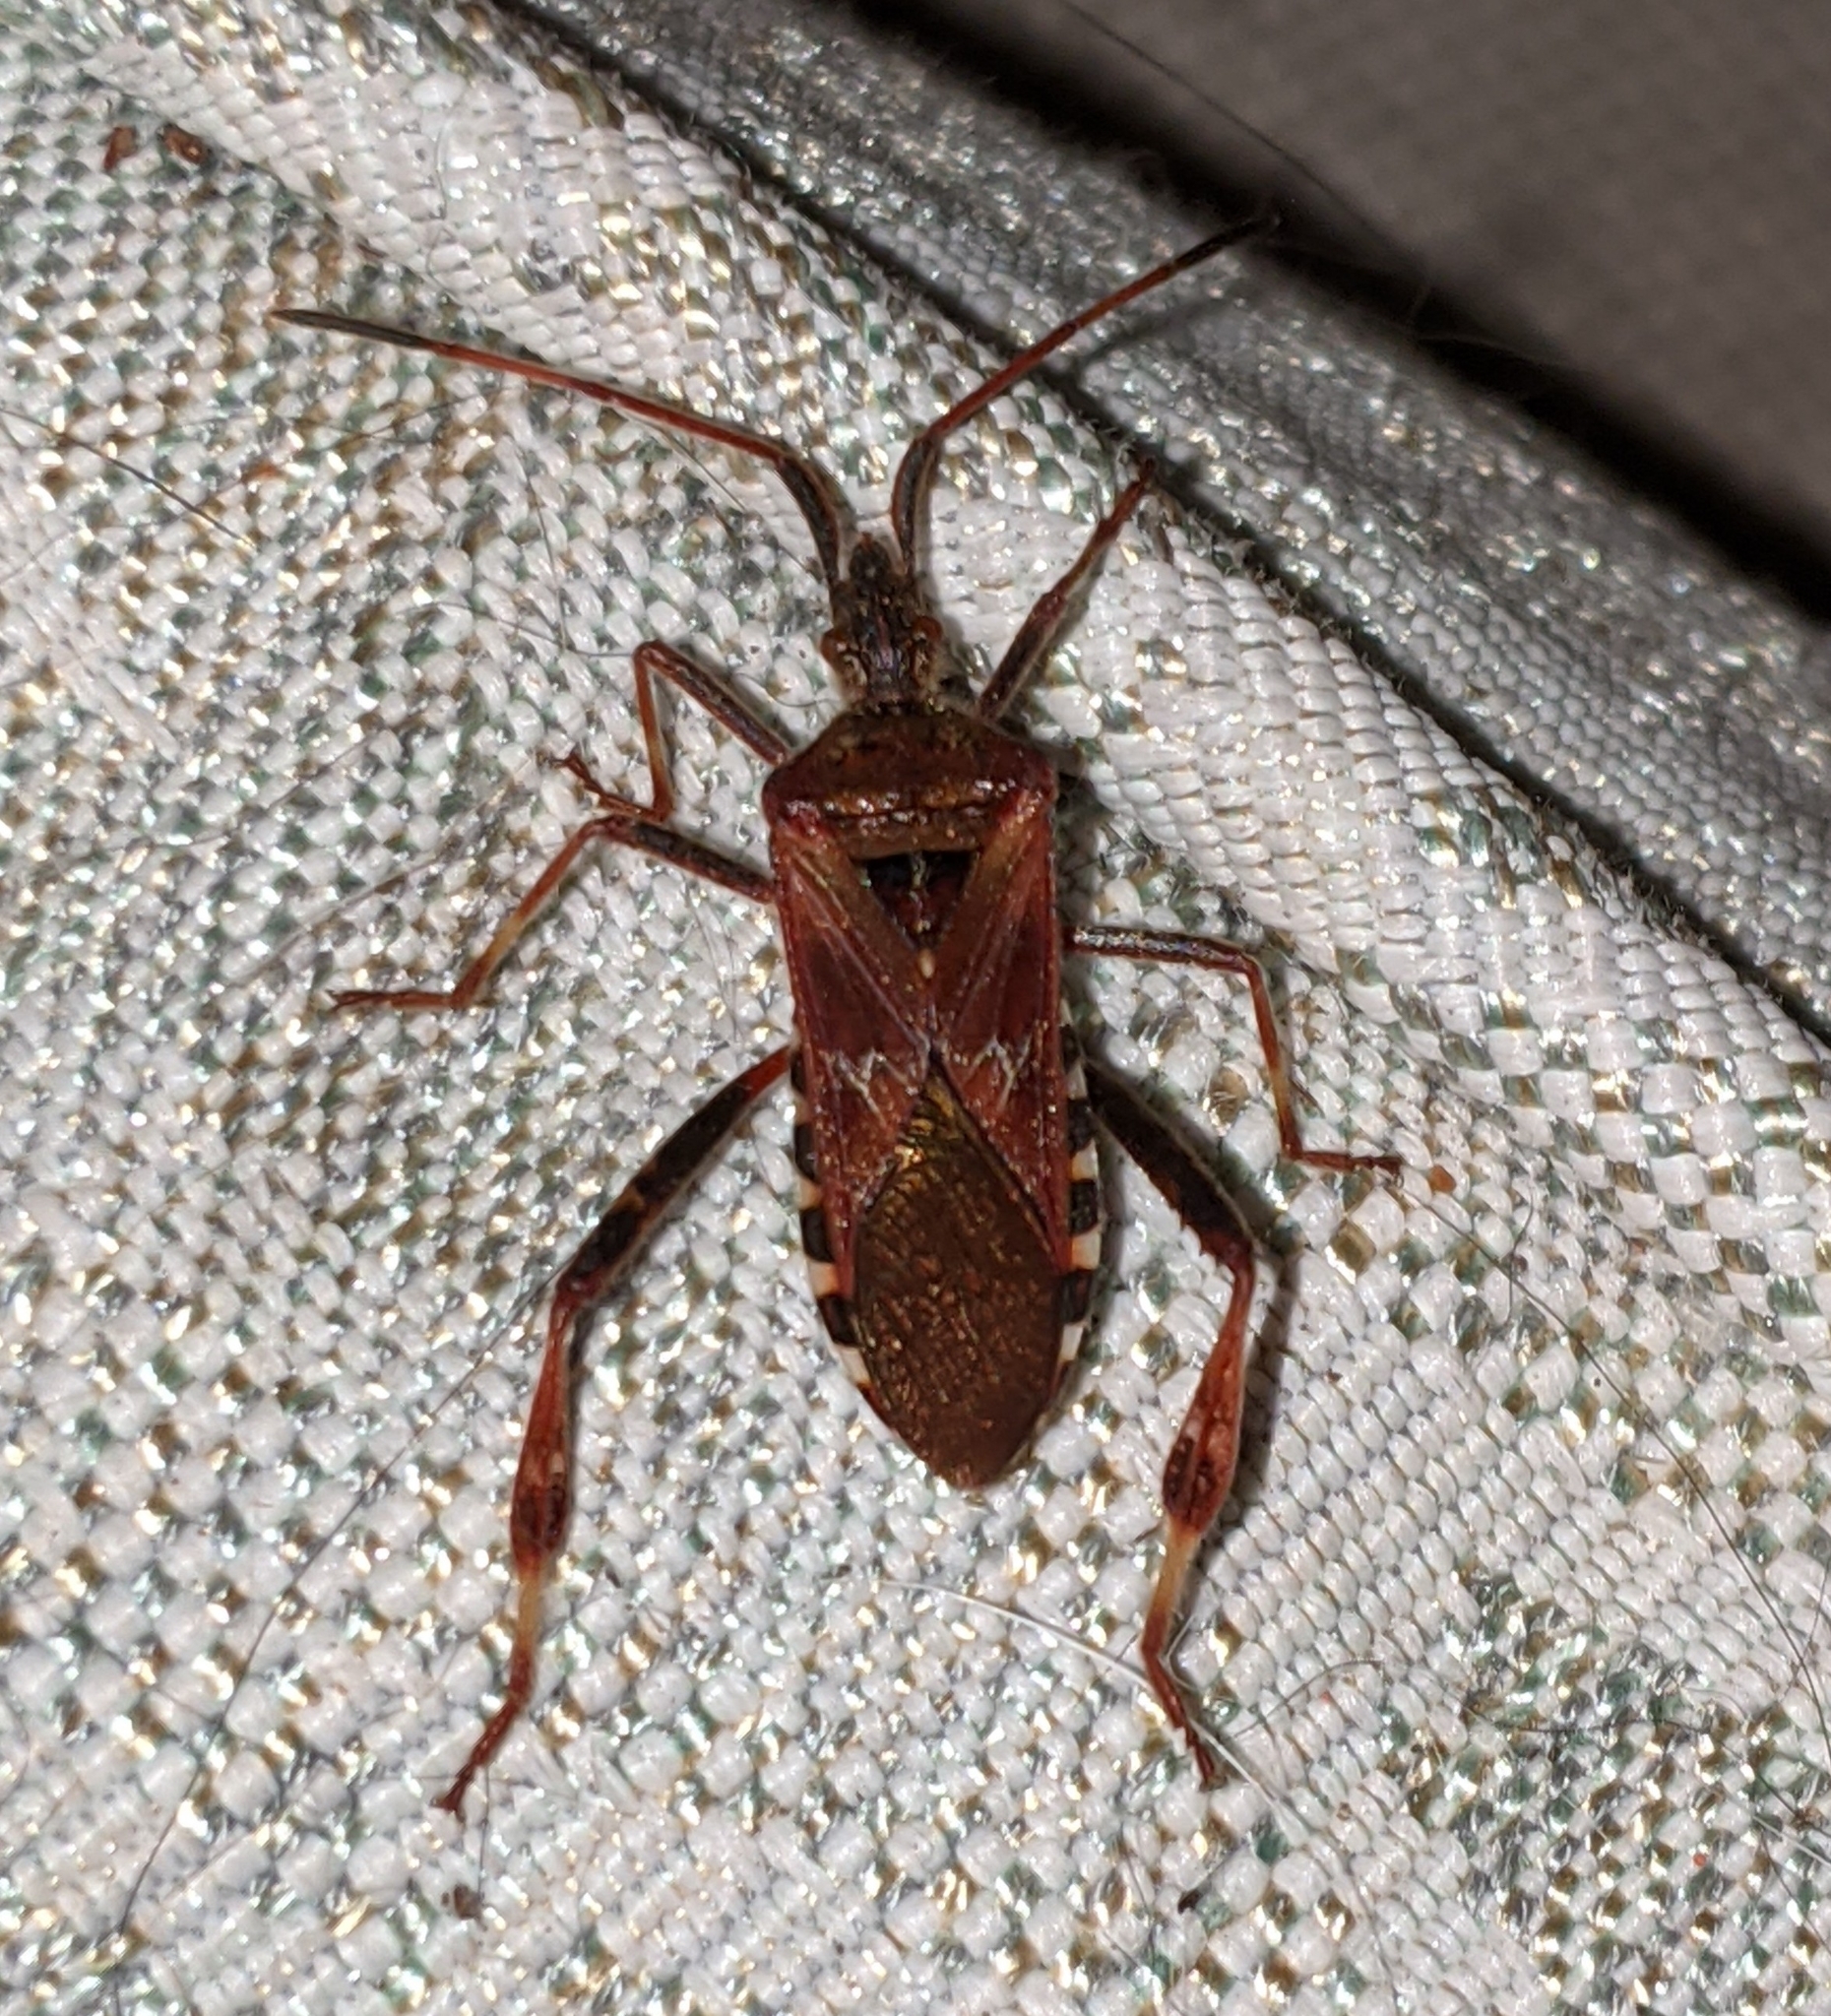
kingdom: Animalia
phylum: Arthropoda
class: Insecta
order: Hemiptera
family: Coreidae
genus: Leptoglossus
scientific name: Leptoglossus occidentalis
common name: Western conifer-seed bug
